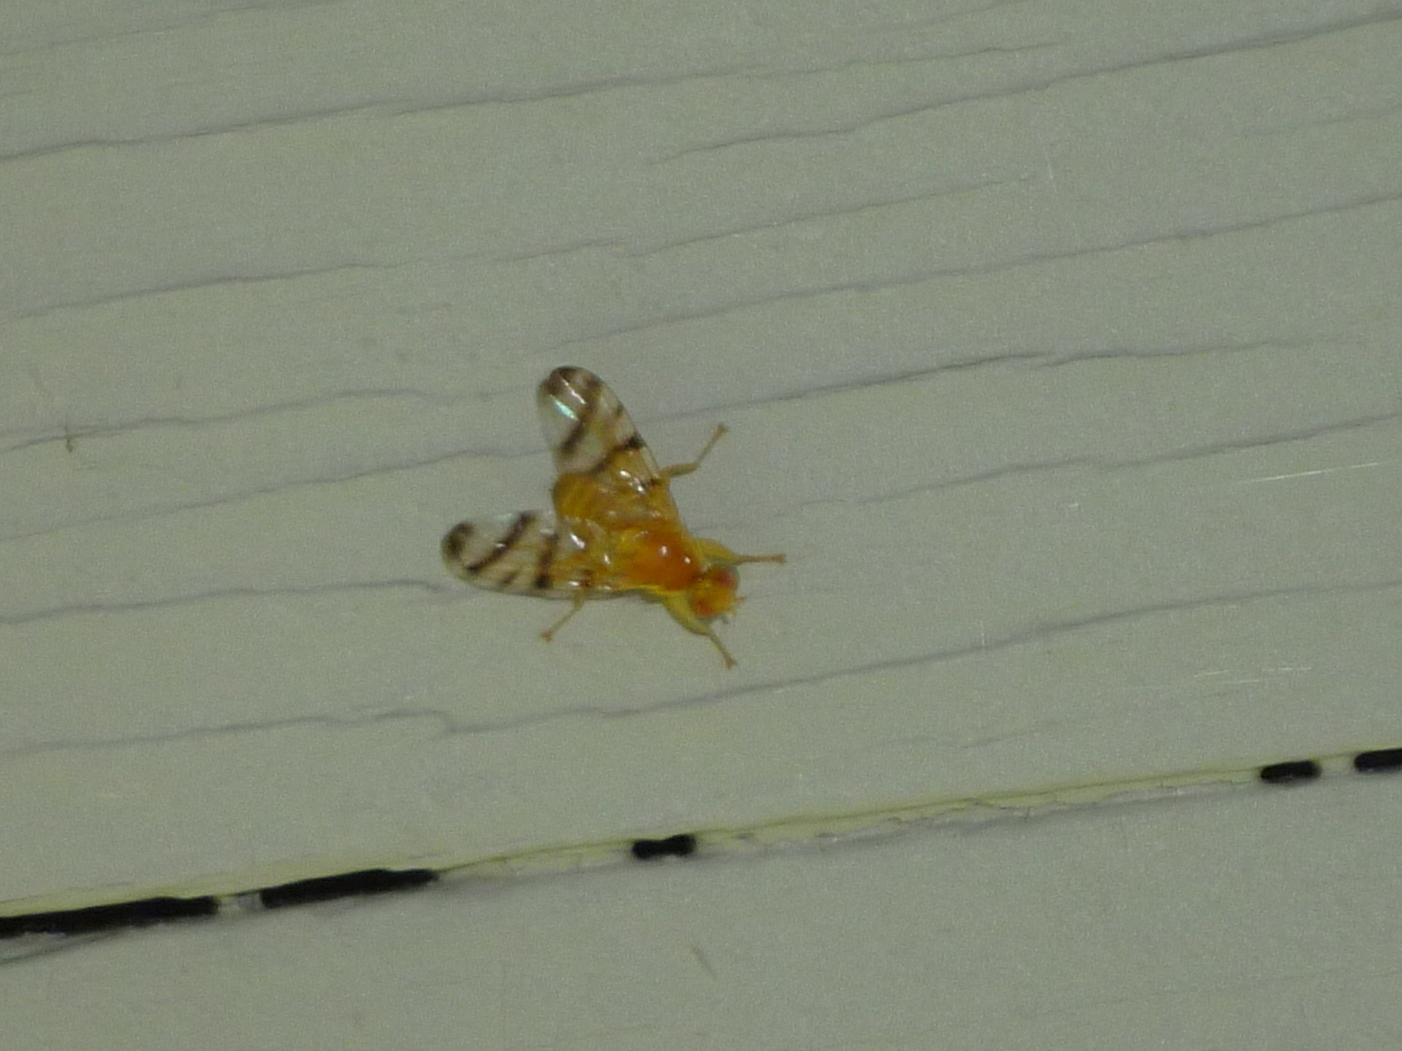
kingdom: Animalia
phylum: Arthropoda
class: Insecta
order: Diptera
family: Tephritidae
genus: Rhagoletis
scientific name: Rhagoletis basiola
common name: Rose hip fly
